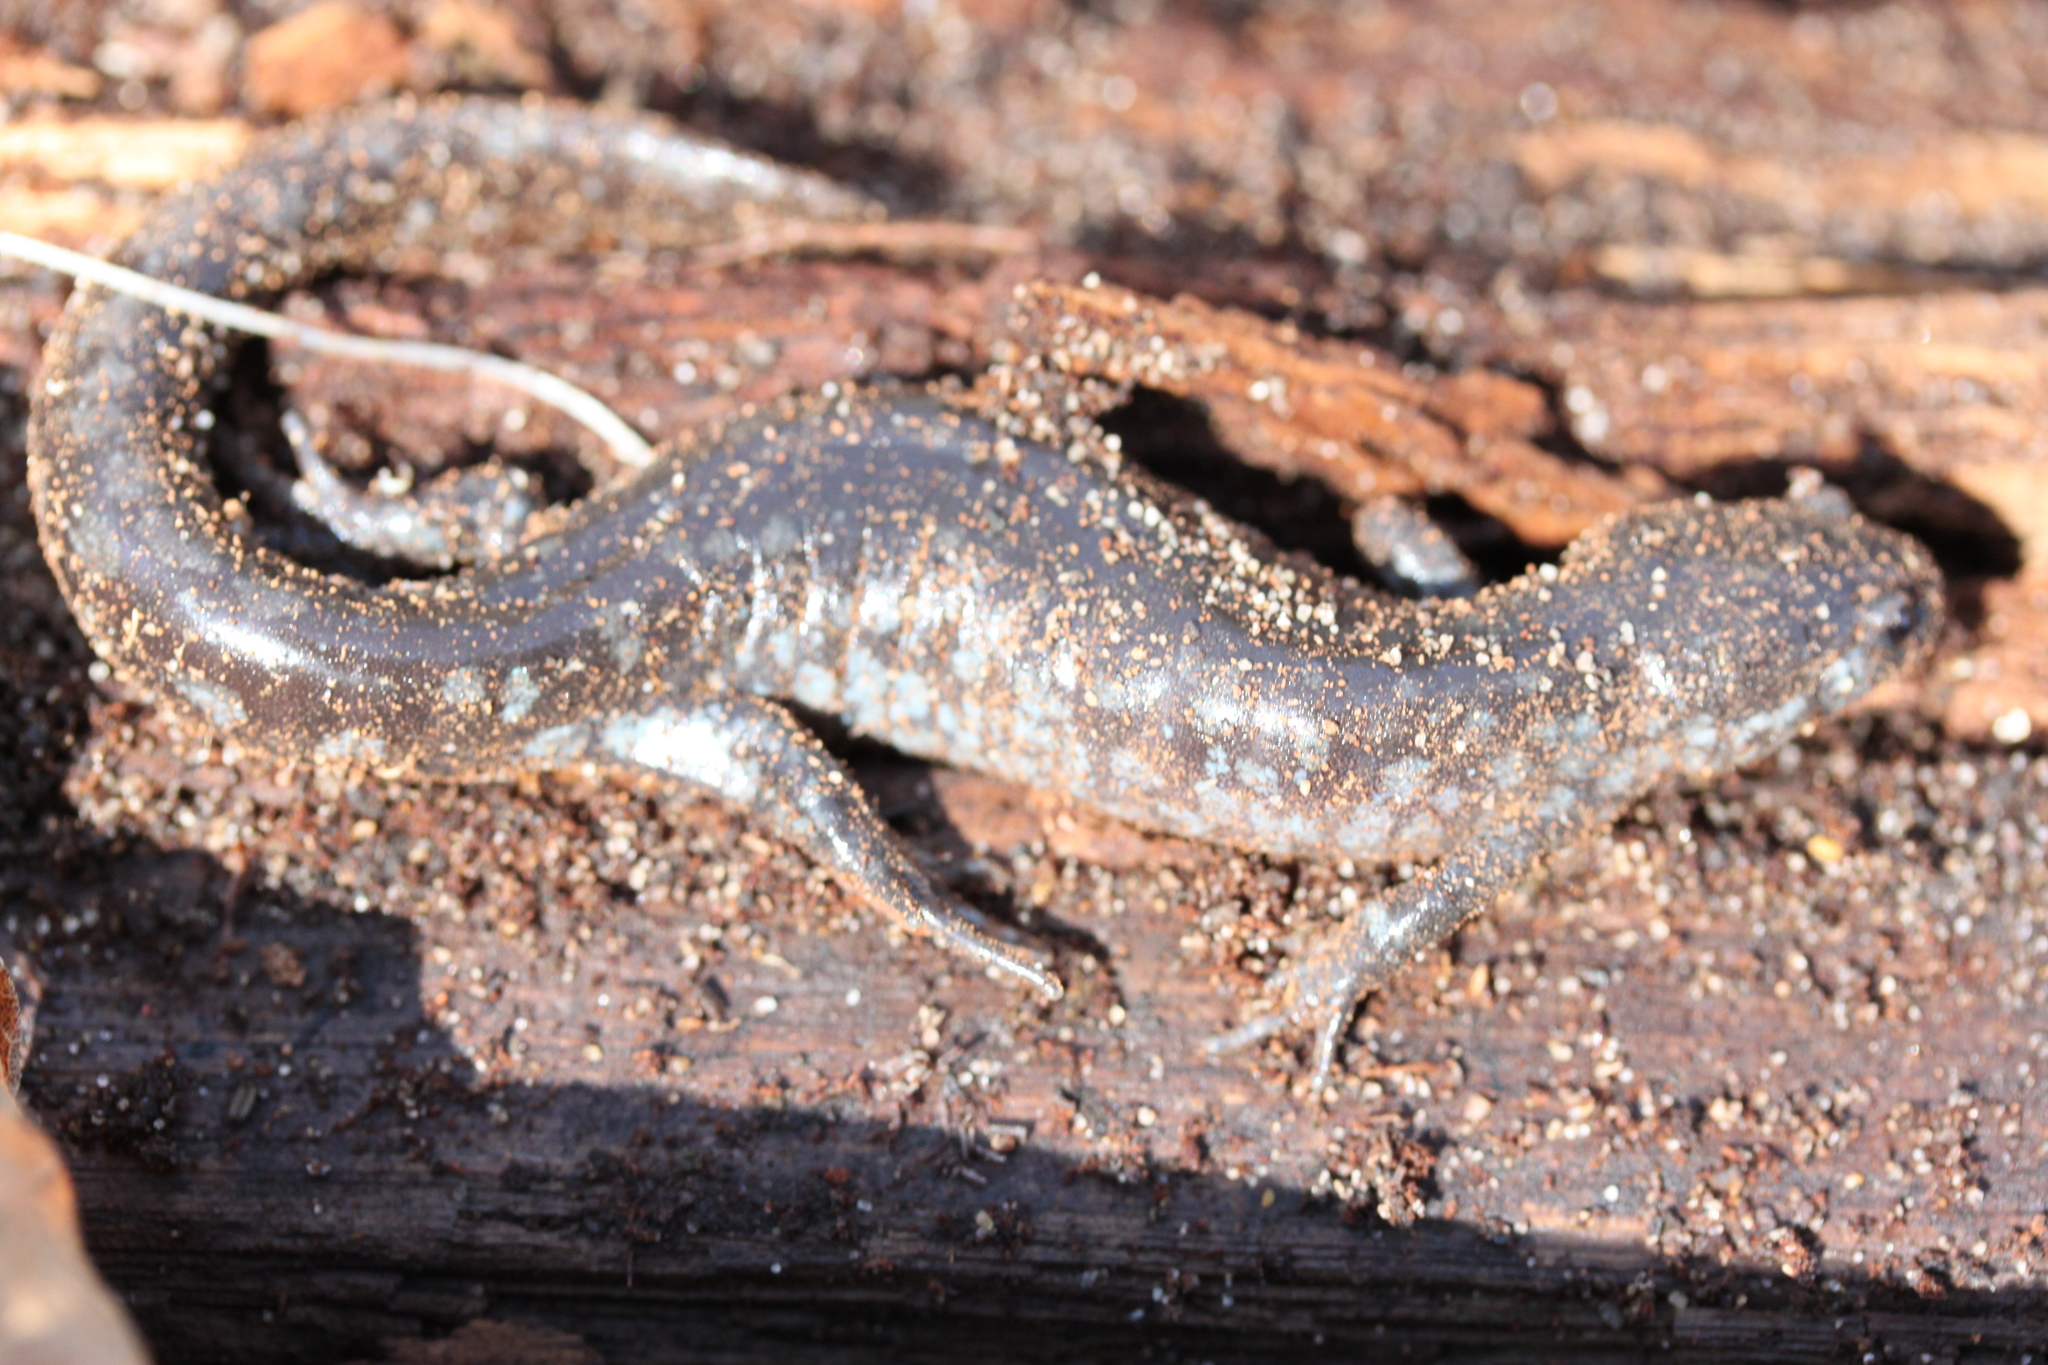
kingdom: Animalia
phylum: Chordata
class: Amphibia
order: Caudata
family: Ambystomatidae
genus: Ambystoma
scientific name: Ambystoma unisexual
